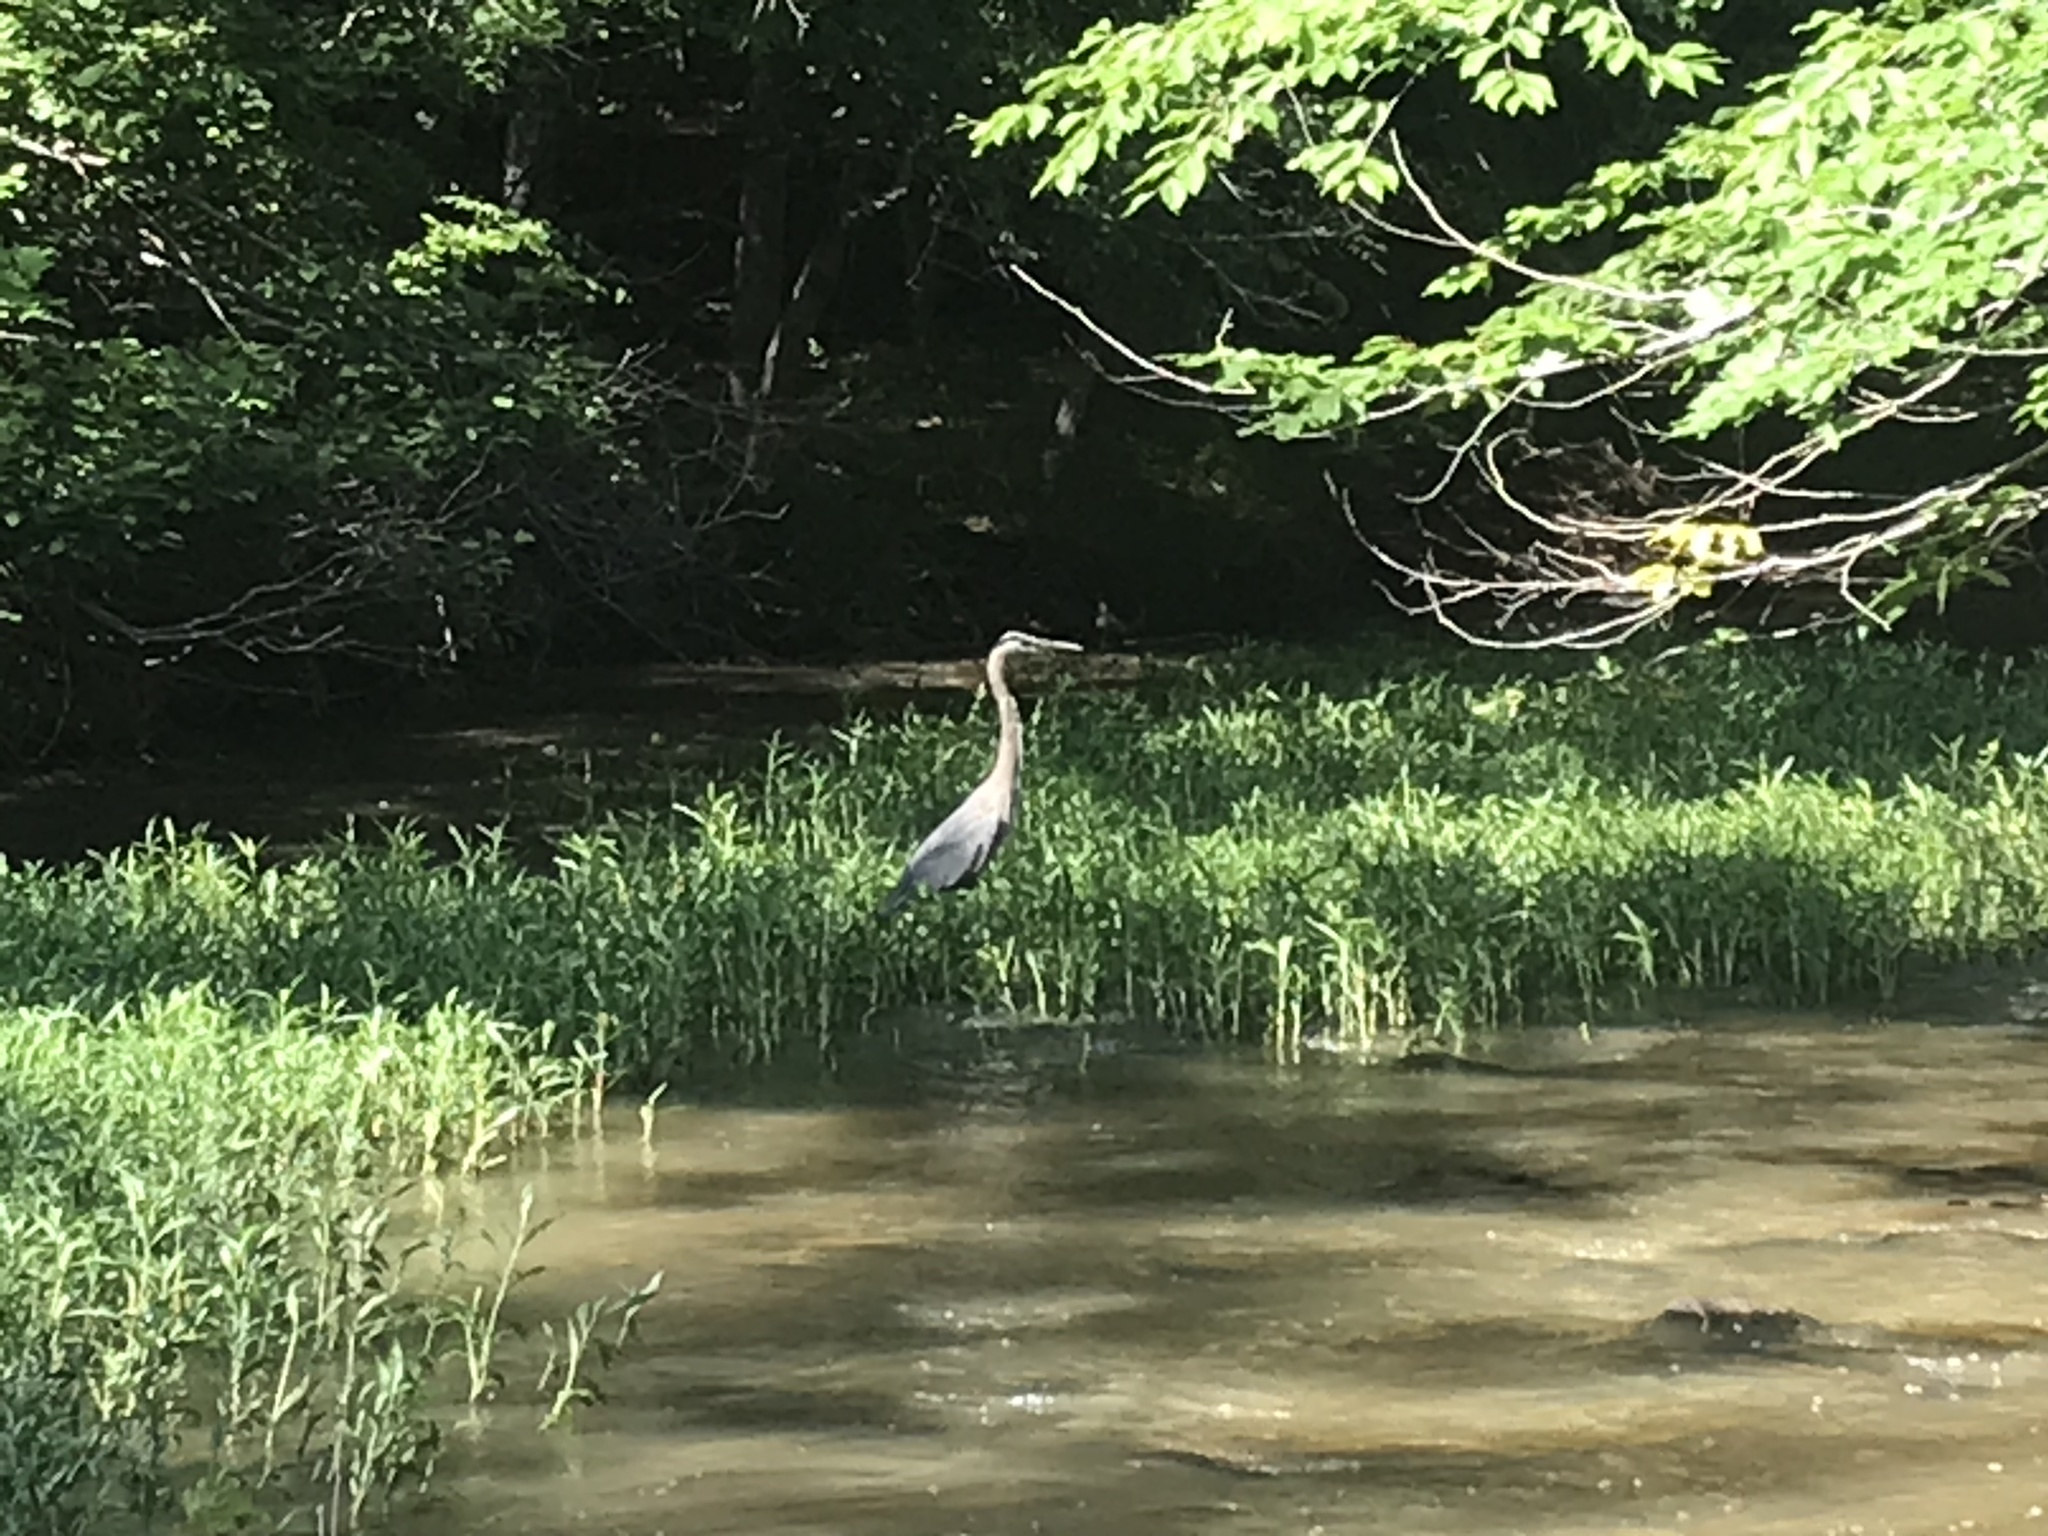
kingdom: Animalia
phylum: Chordata
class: Aves
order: Pelecaniformes
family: Ardeidae
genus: Ardea
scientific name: Ardea herodias
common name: Great blue heron
